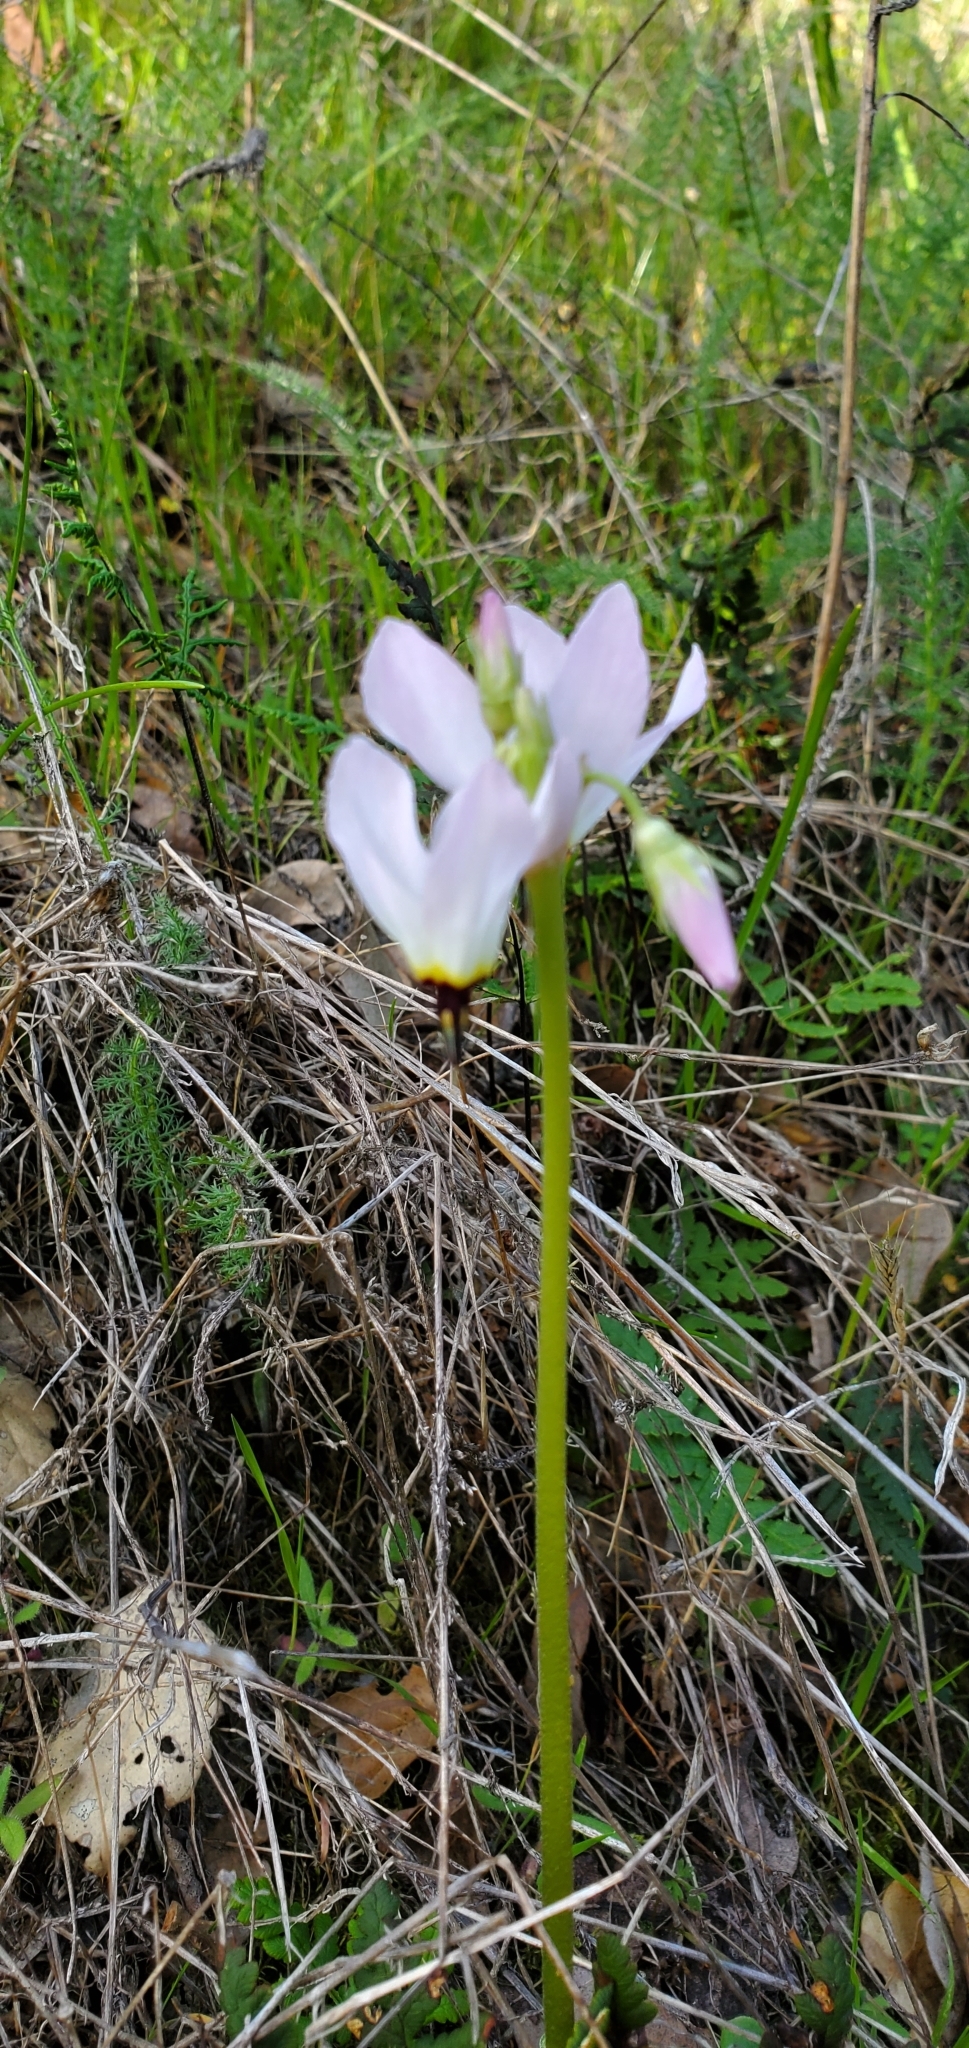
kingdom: Plantae
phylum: Tracheophyta
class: Magnoliopsida
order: Ericales
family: Primulaceae
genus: Dodecatheon
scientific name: Dodecatheon hendersonii
